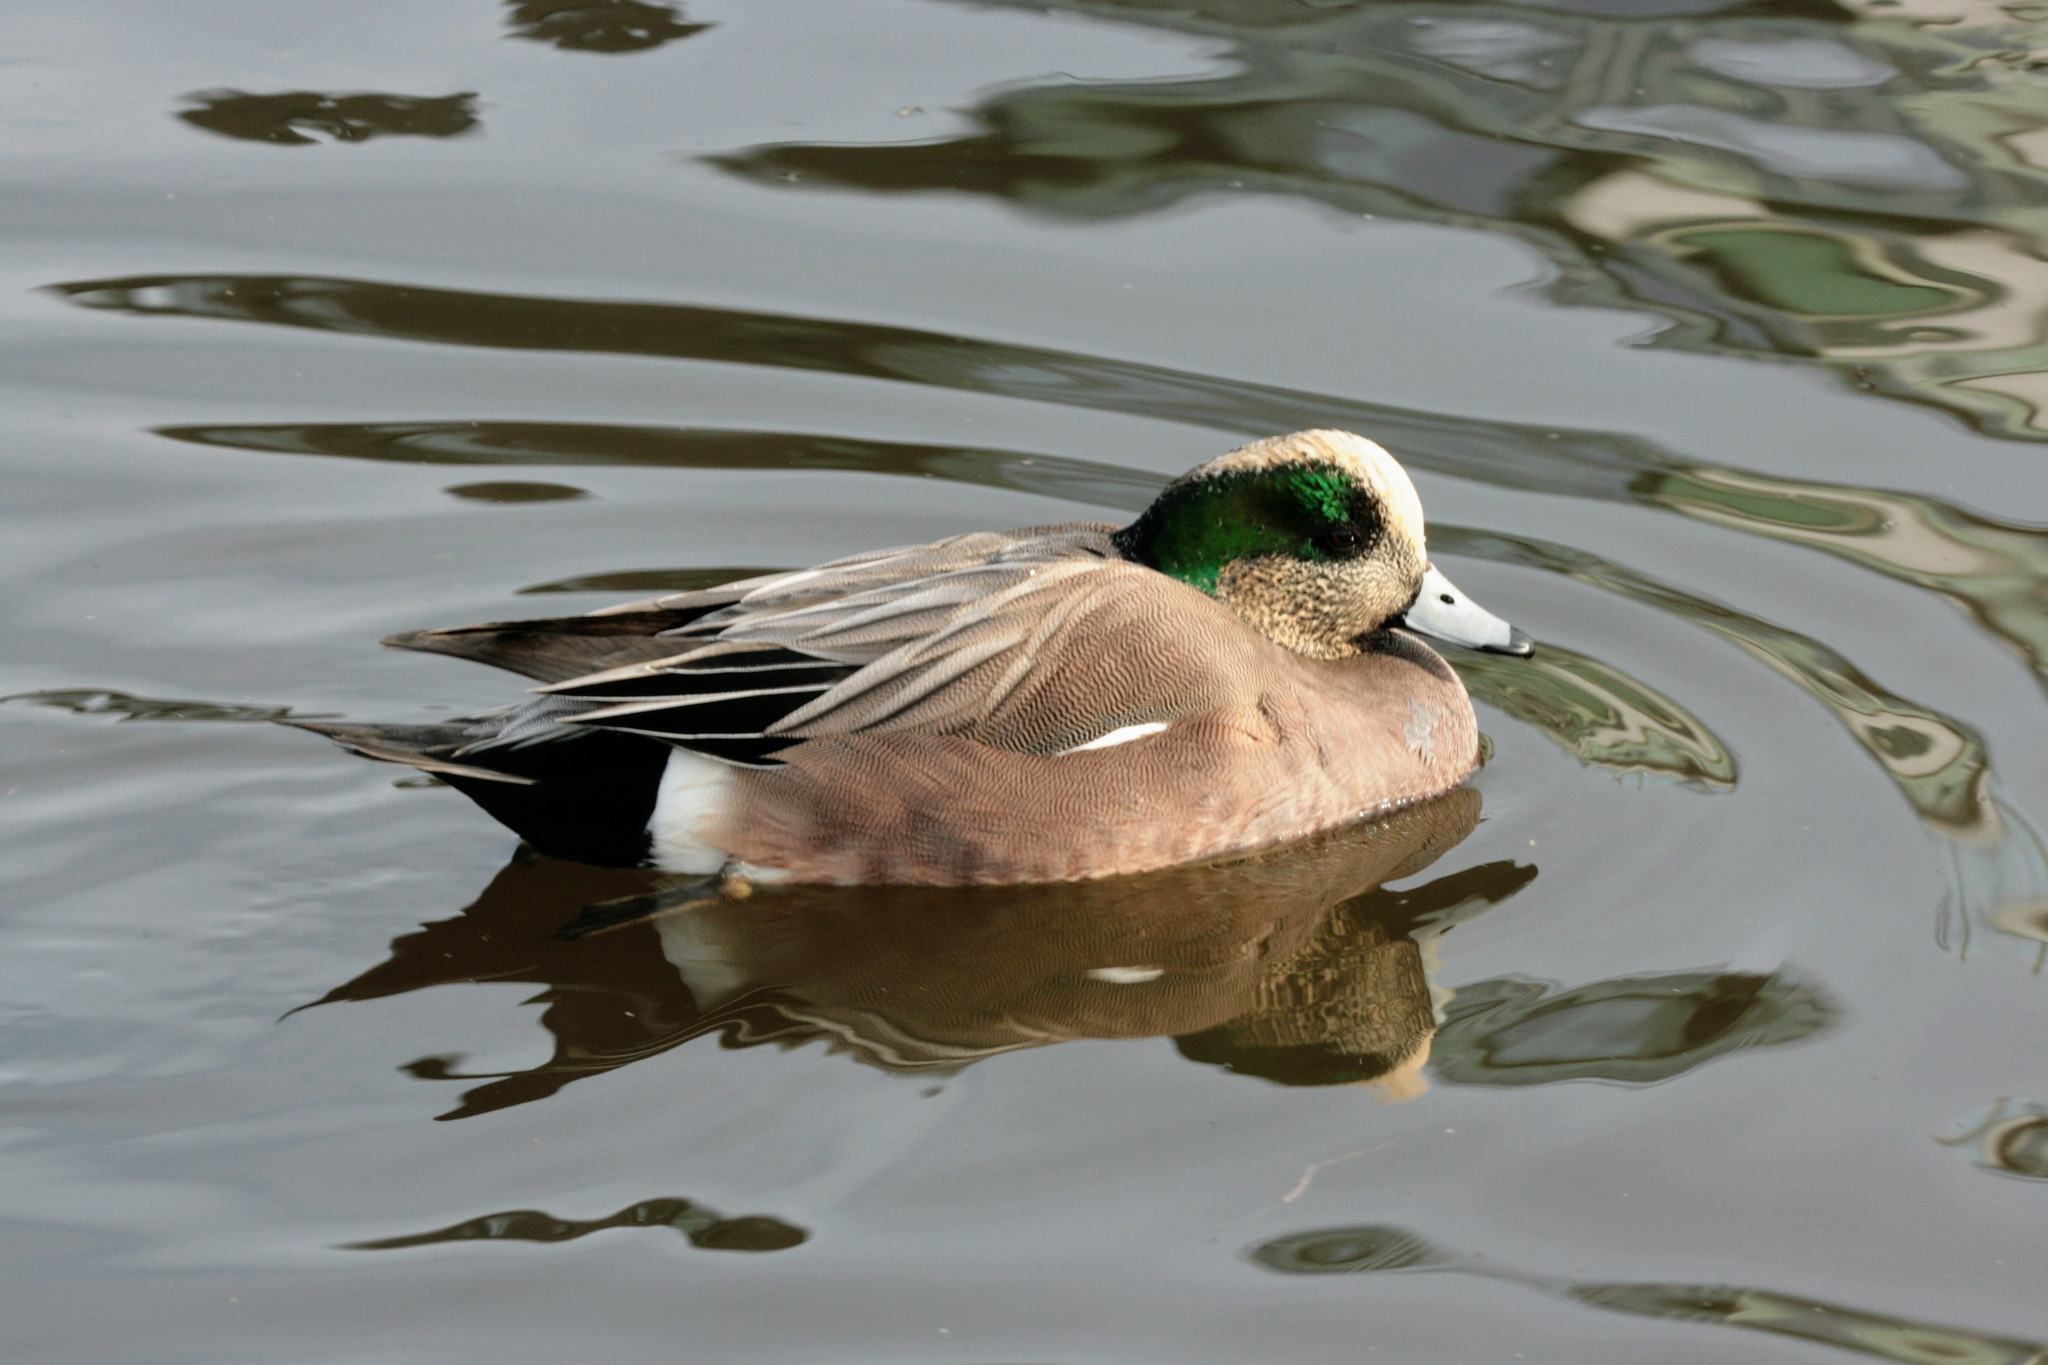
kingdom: Animalia
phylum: Chordata
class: Aves
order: Anseriformes
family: Anatidae
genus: Mareca
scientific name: Mareca americana
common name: American wigeon
